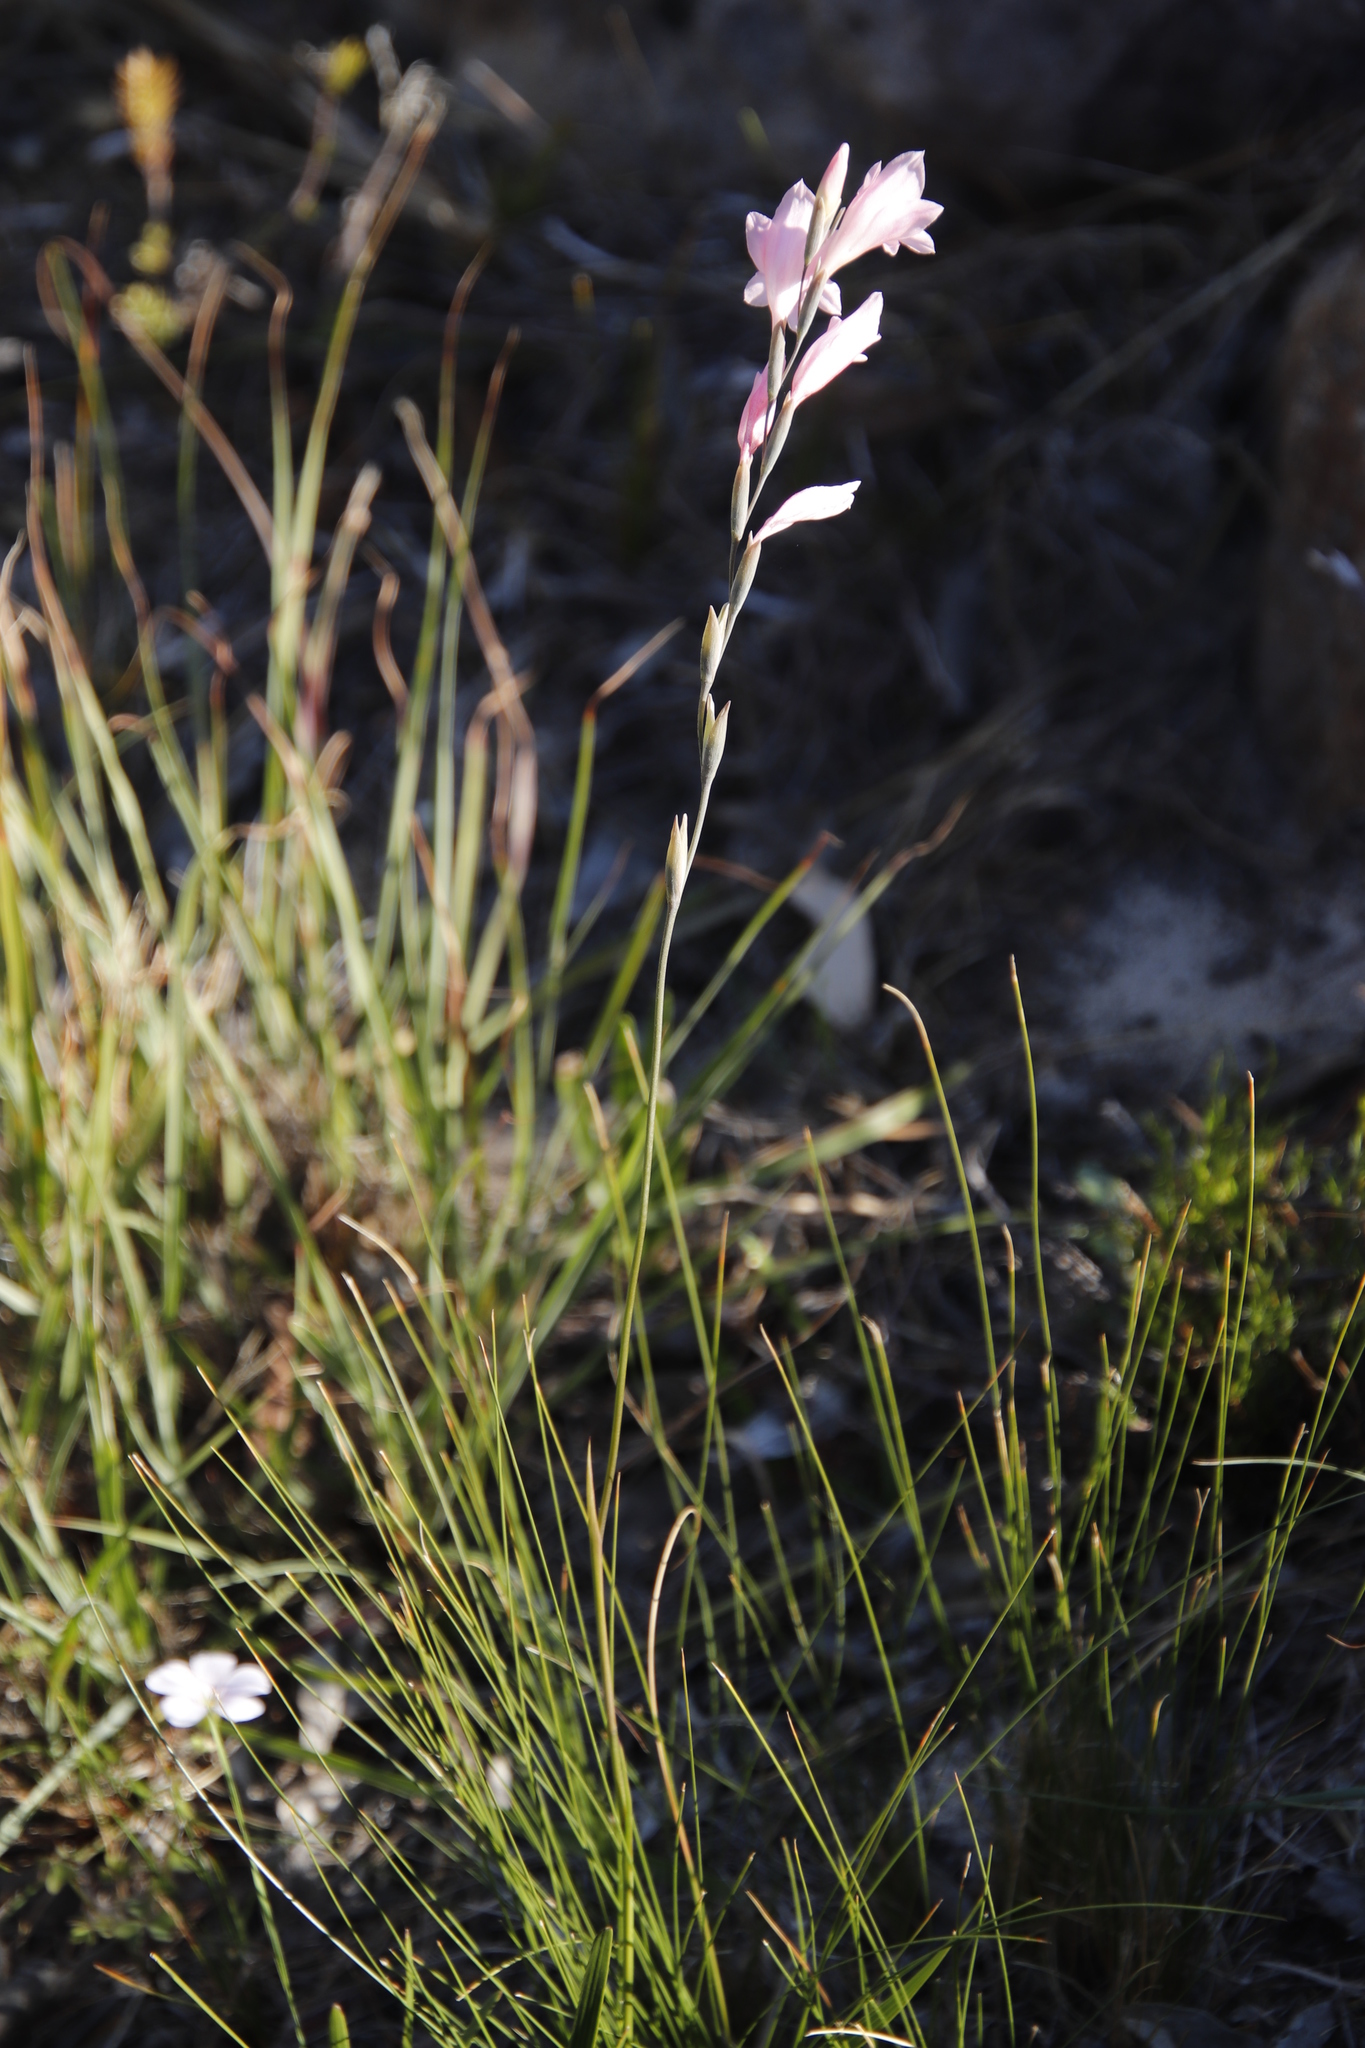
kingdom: Plantae
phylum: Tracheophyta
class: Liliopsida
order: Asparagales
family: Iridaceae
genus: Gladiolus
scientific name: Gladiolus brevifolius
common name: March pypie
